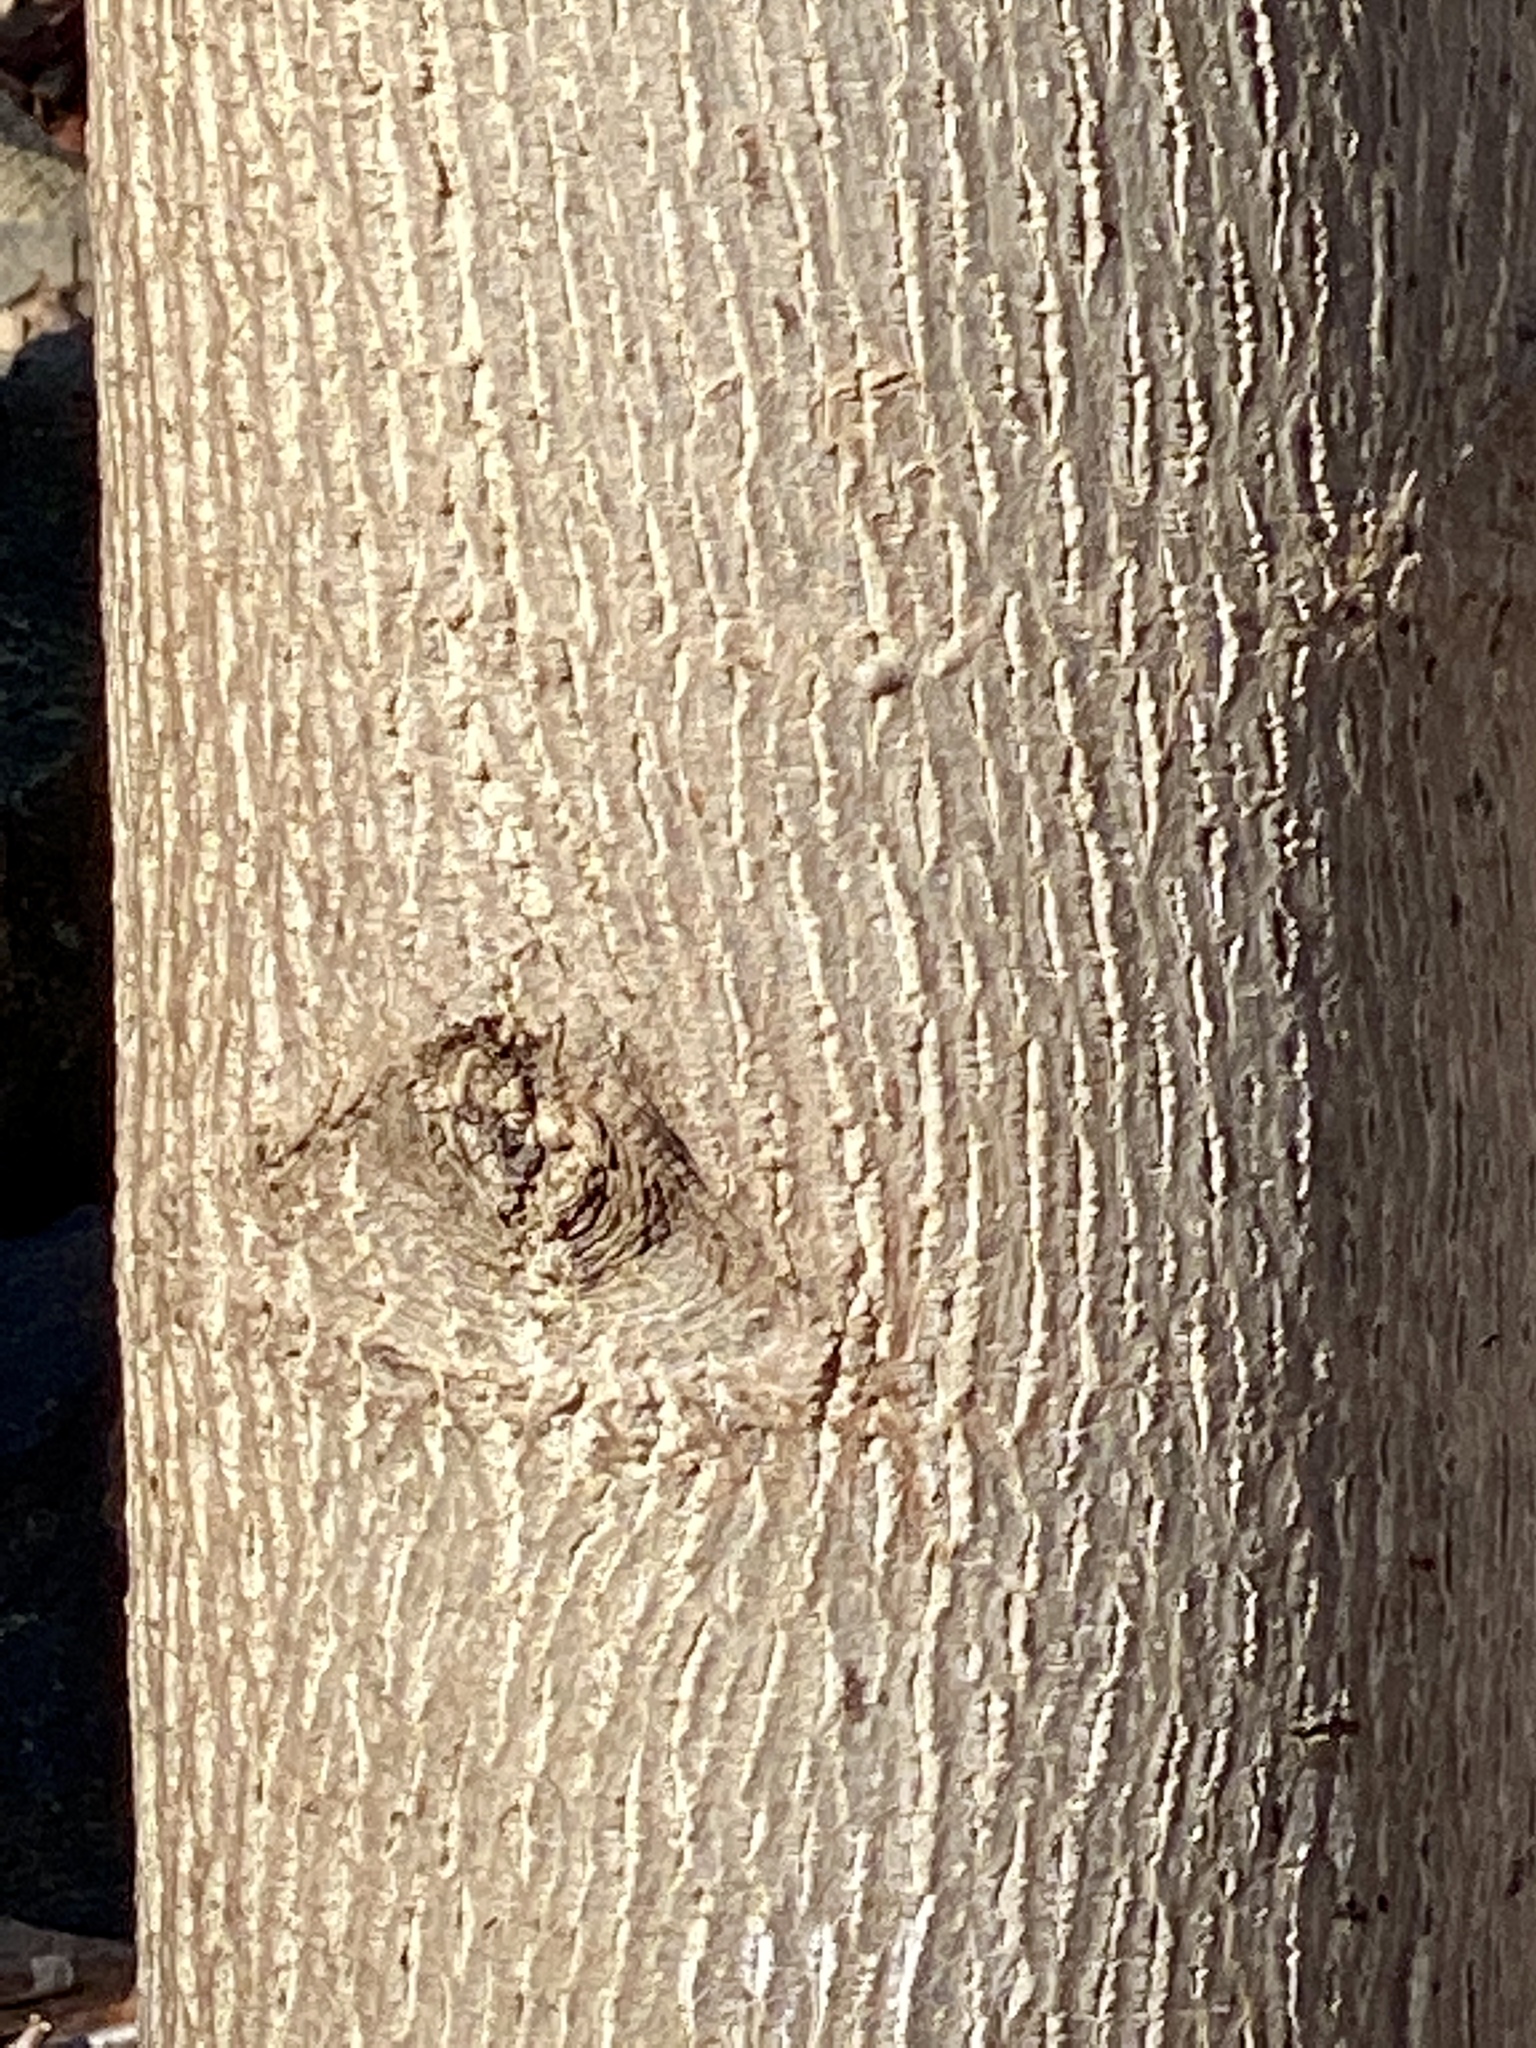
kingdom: Plantae
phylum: Tracheophyta
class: Magnoliopsida
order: Magnoliales
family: Magnoliaceae
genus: Liriodendron
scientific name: Liriodendron tulipifera
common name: Tulip tree
